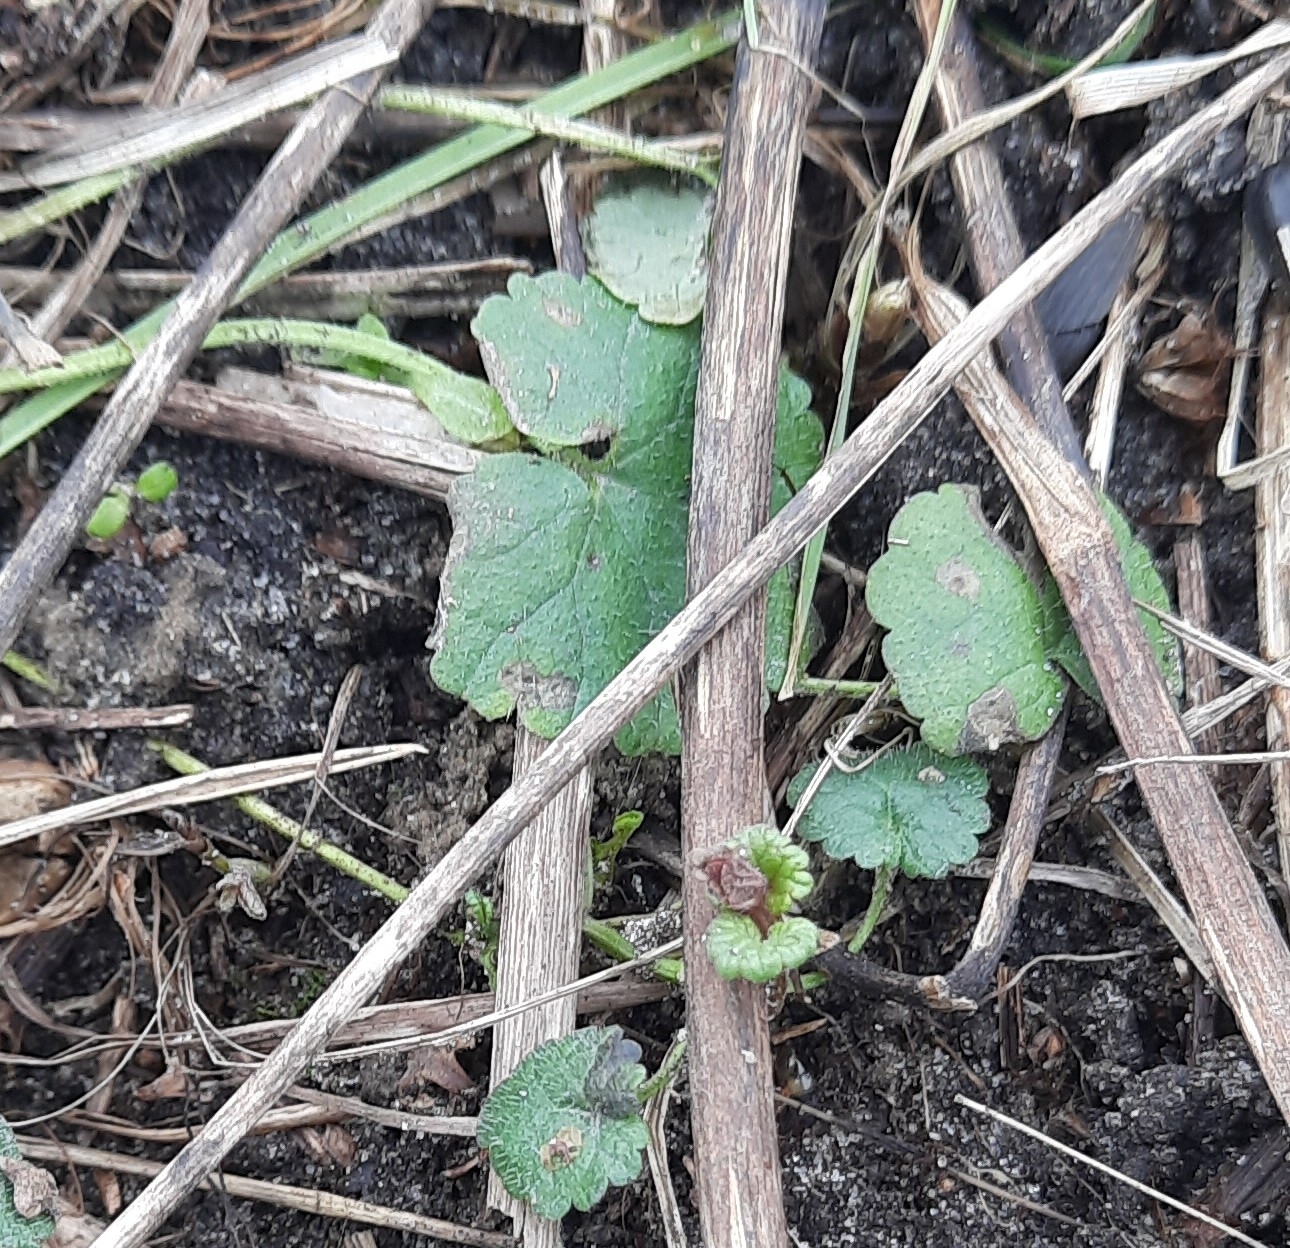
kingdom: Plantae
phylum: Tracheophyta
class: Magnoliopsida
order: Lamiales
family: Lamiaceae
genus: Glechoma
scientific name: Glechoma hederacea
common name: Ground ivy
